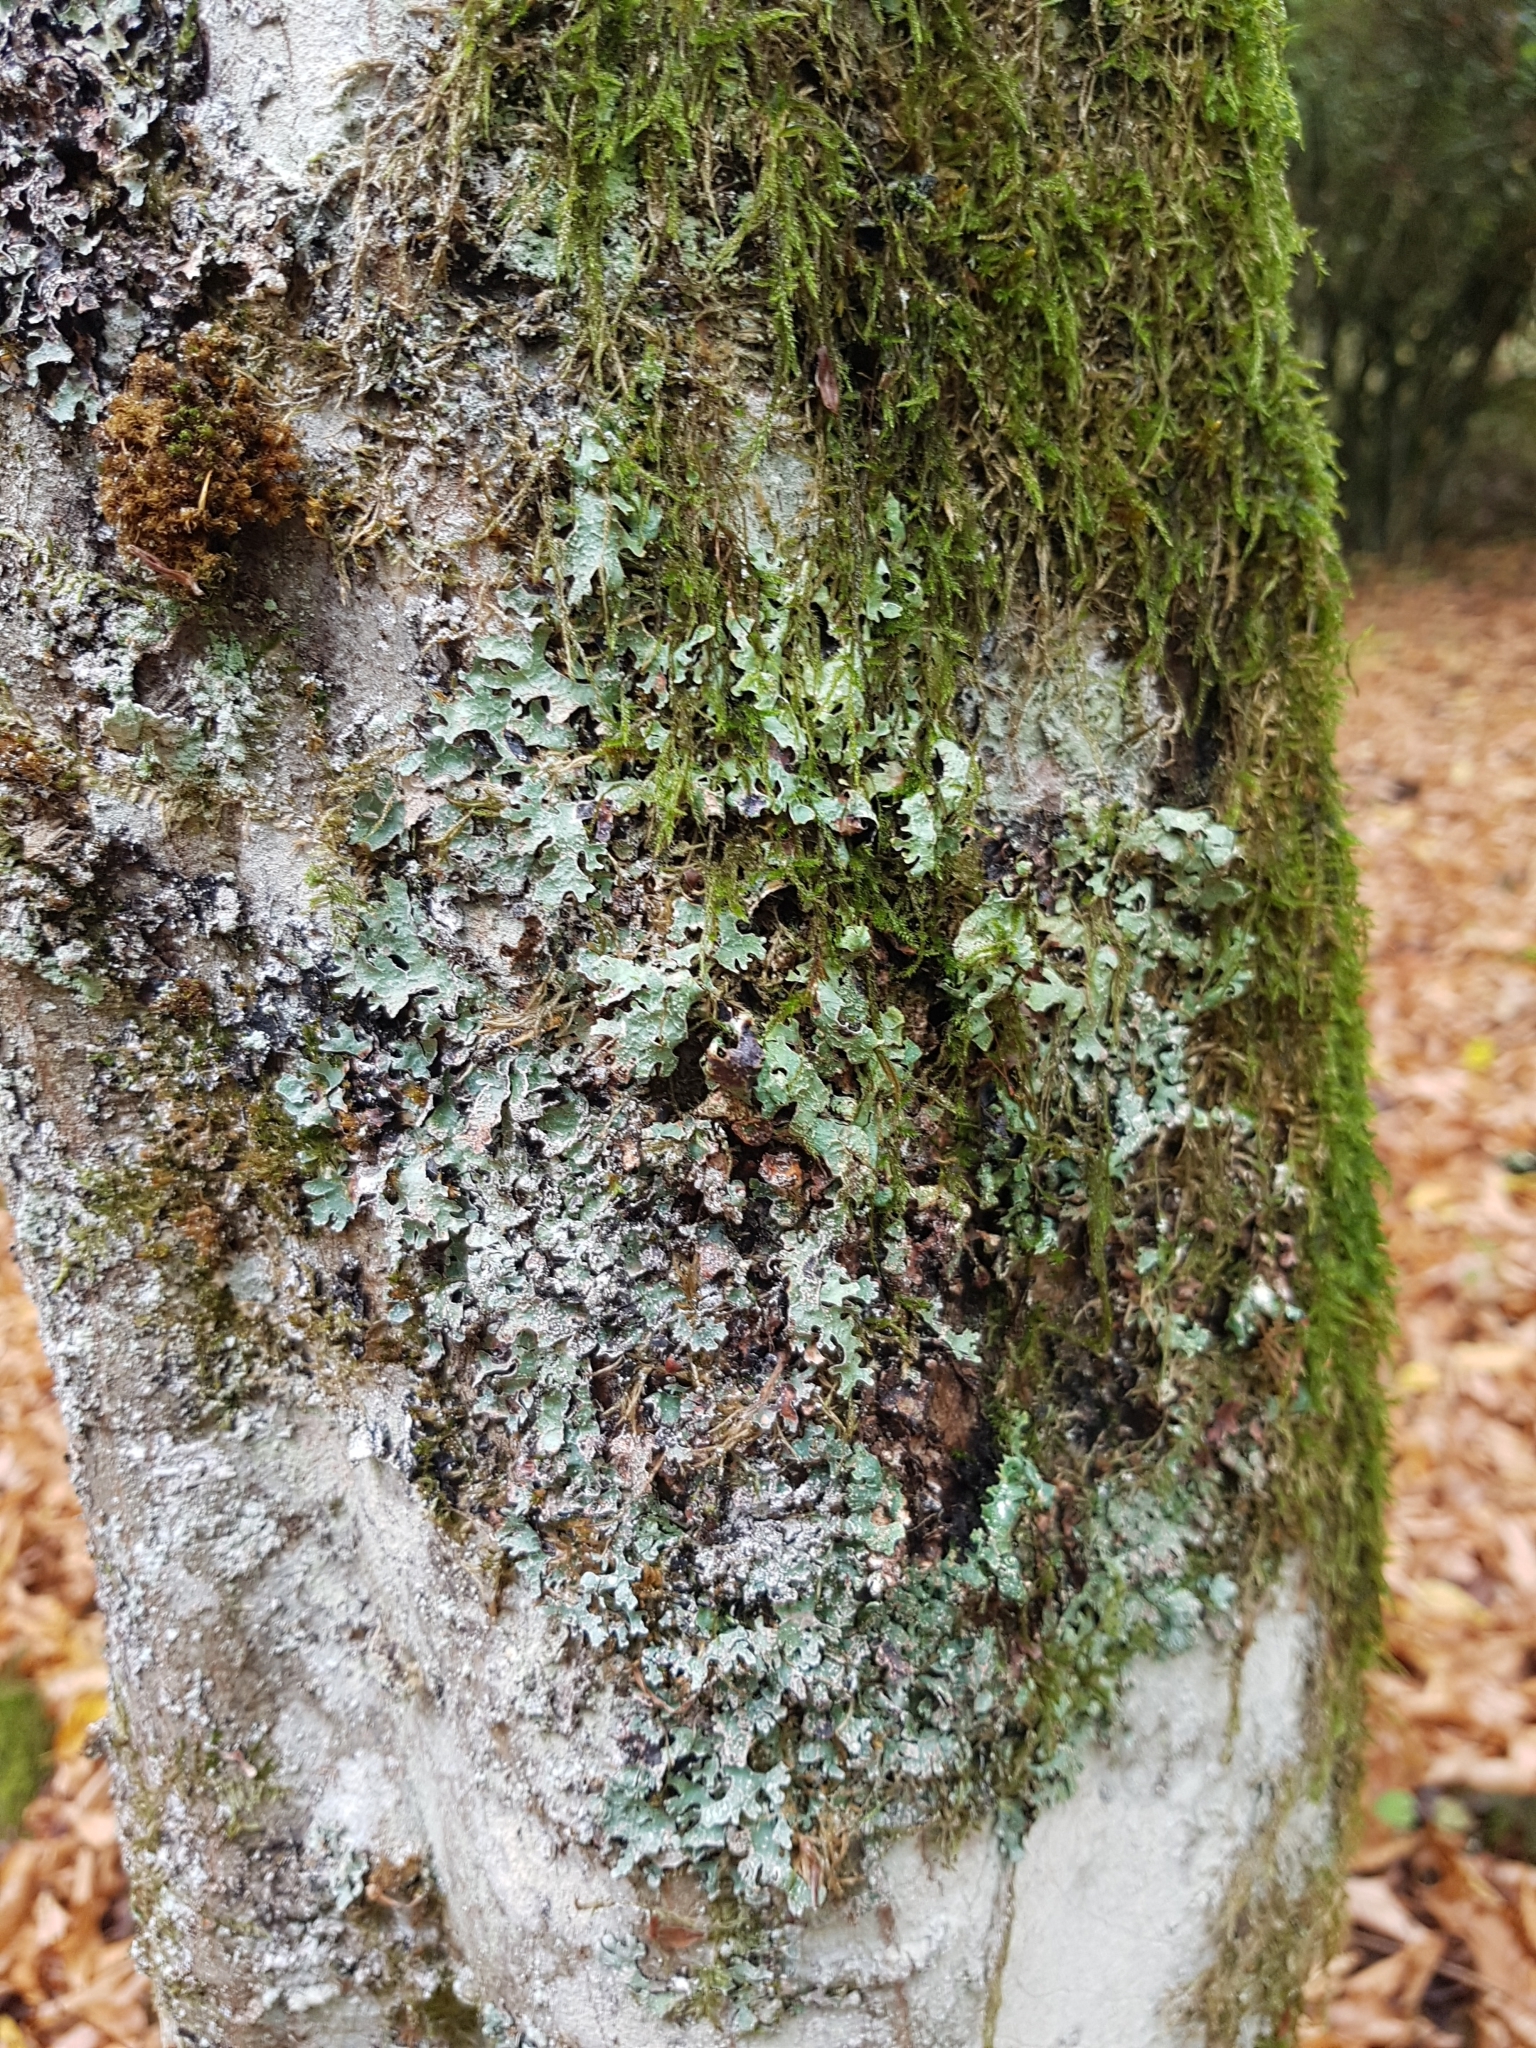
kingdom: Fungi
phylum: Ascomycota
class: Lecanoromycetes
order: Lecanorales
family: Parmeliaceae
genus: Parmelia
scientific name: Parmelia sulcata
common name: Netted shield lichen
